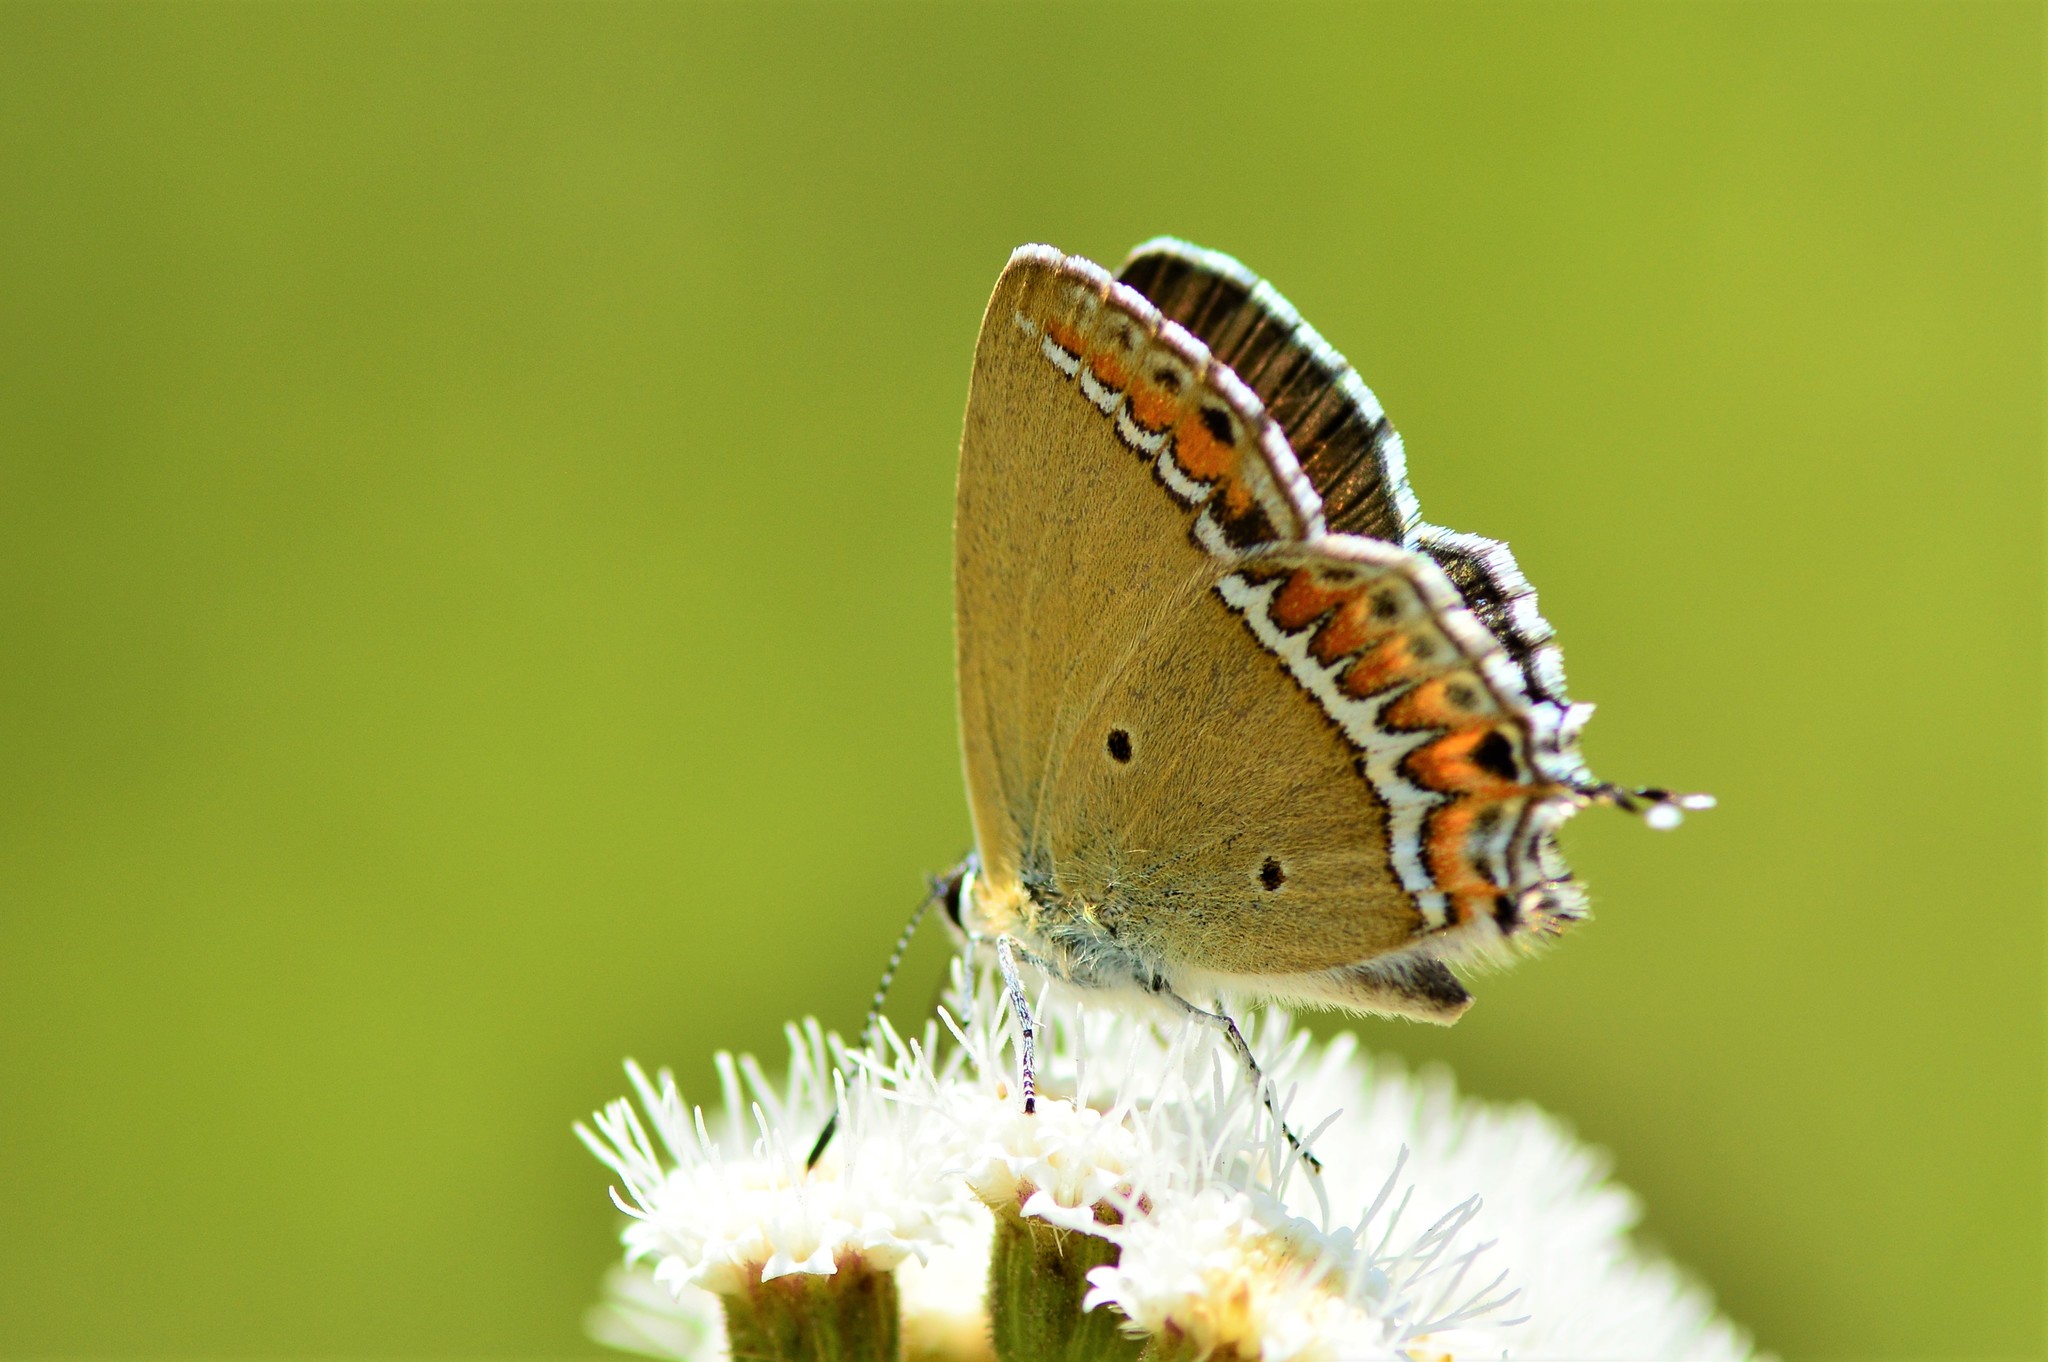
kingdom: Animalia
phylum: Arthropoda
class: Insecta
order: Lepidoptera
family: Lycaenidae
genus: Heliophorus
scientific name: Heliophorus sena
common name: Sorrel sapphire
